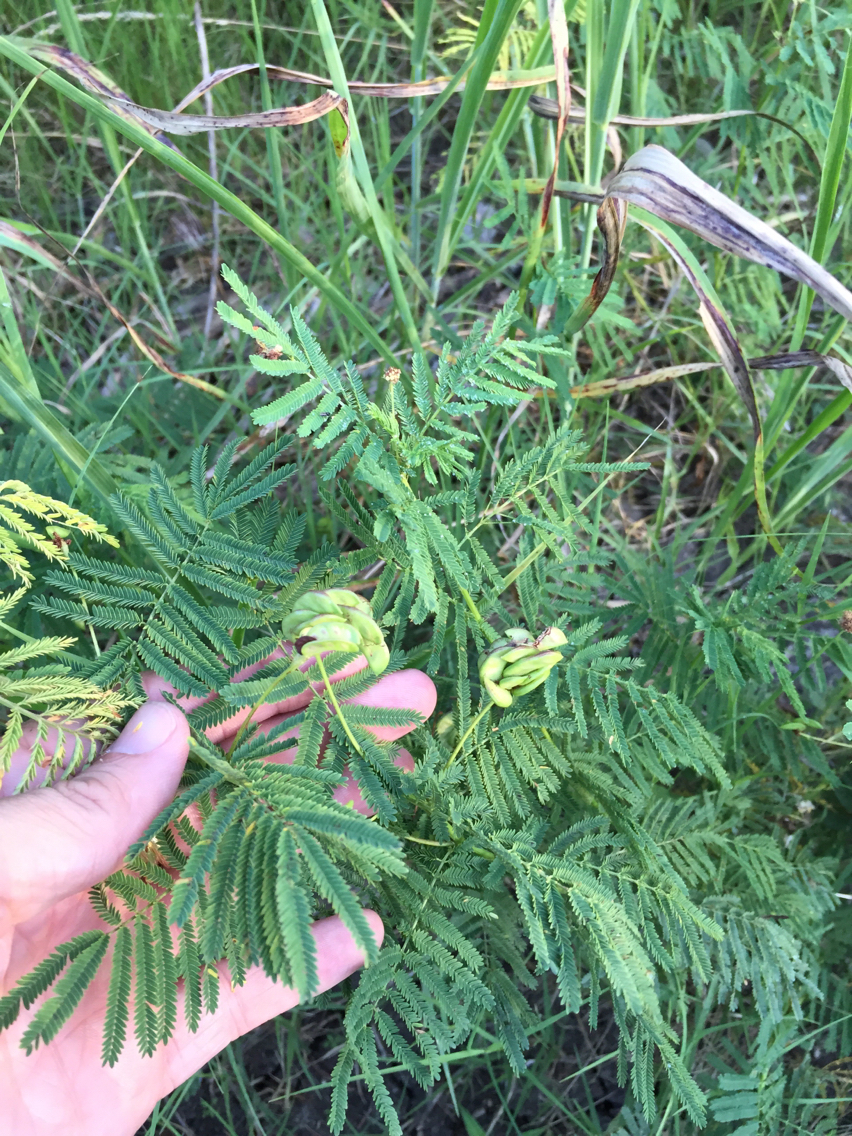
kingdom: Plantae
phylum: Tracheophyta
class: Magnoliopsida
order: Fabales
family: Fabaceae
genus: Desmanthus
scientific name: Desmanthus illinoensis
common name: Illinois bundle-flower
